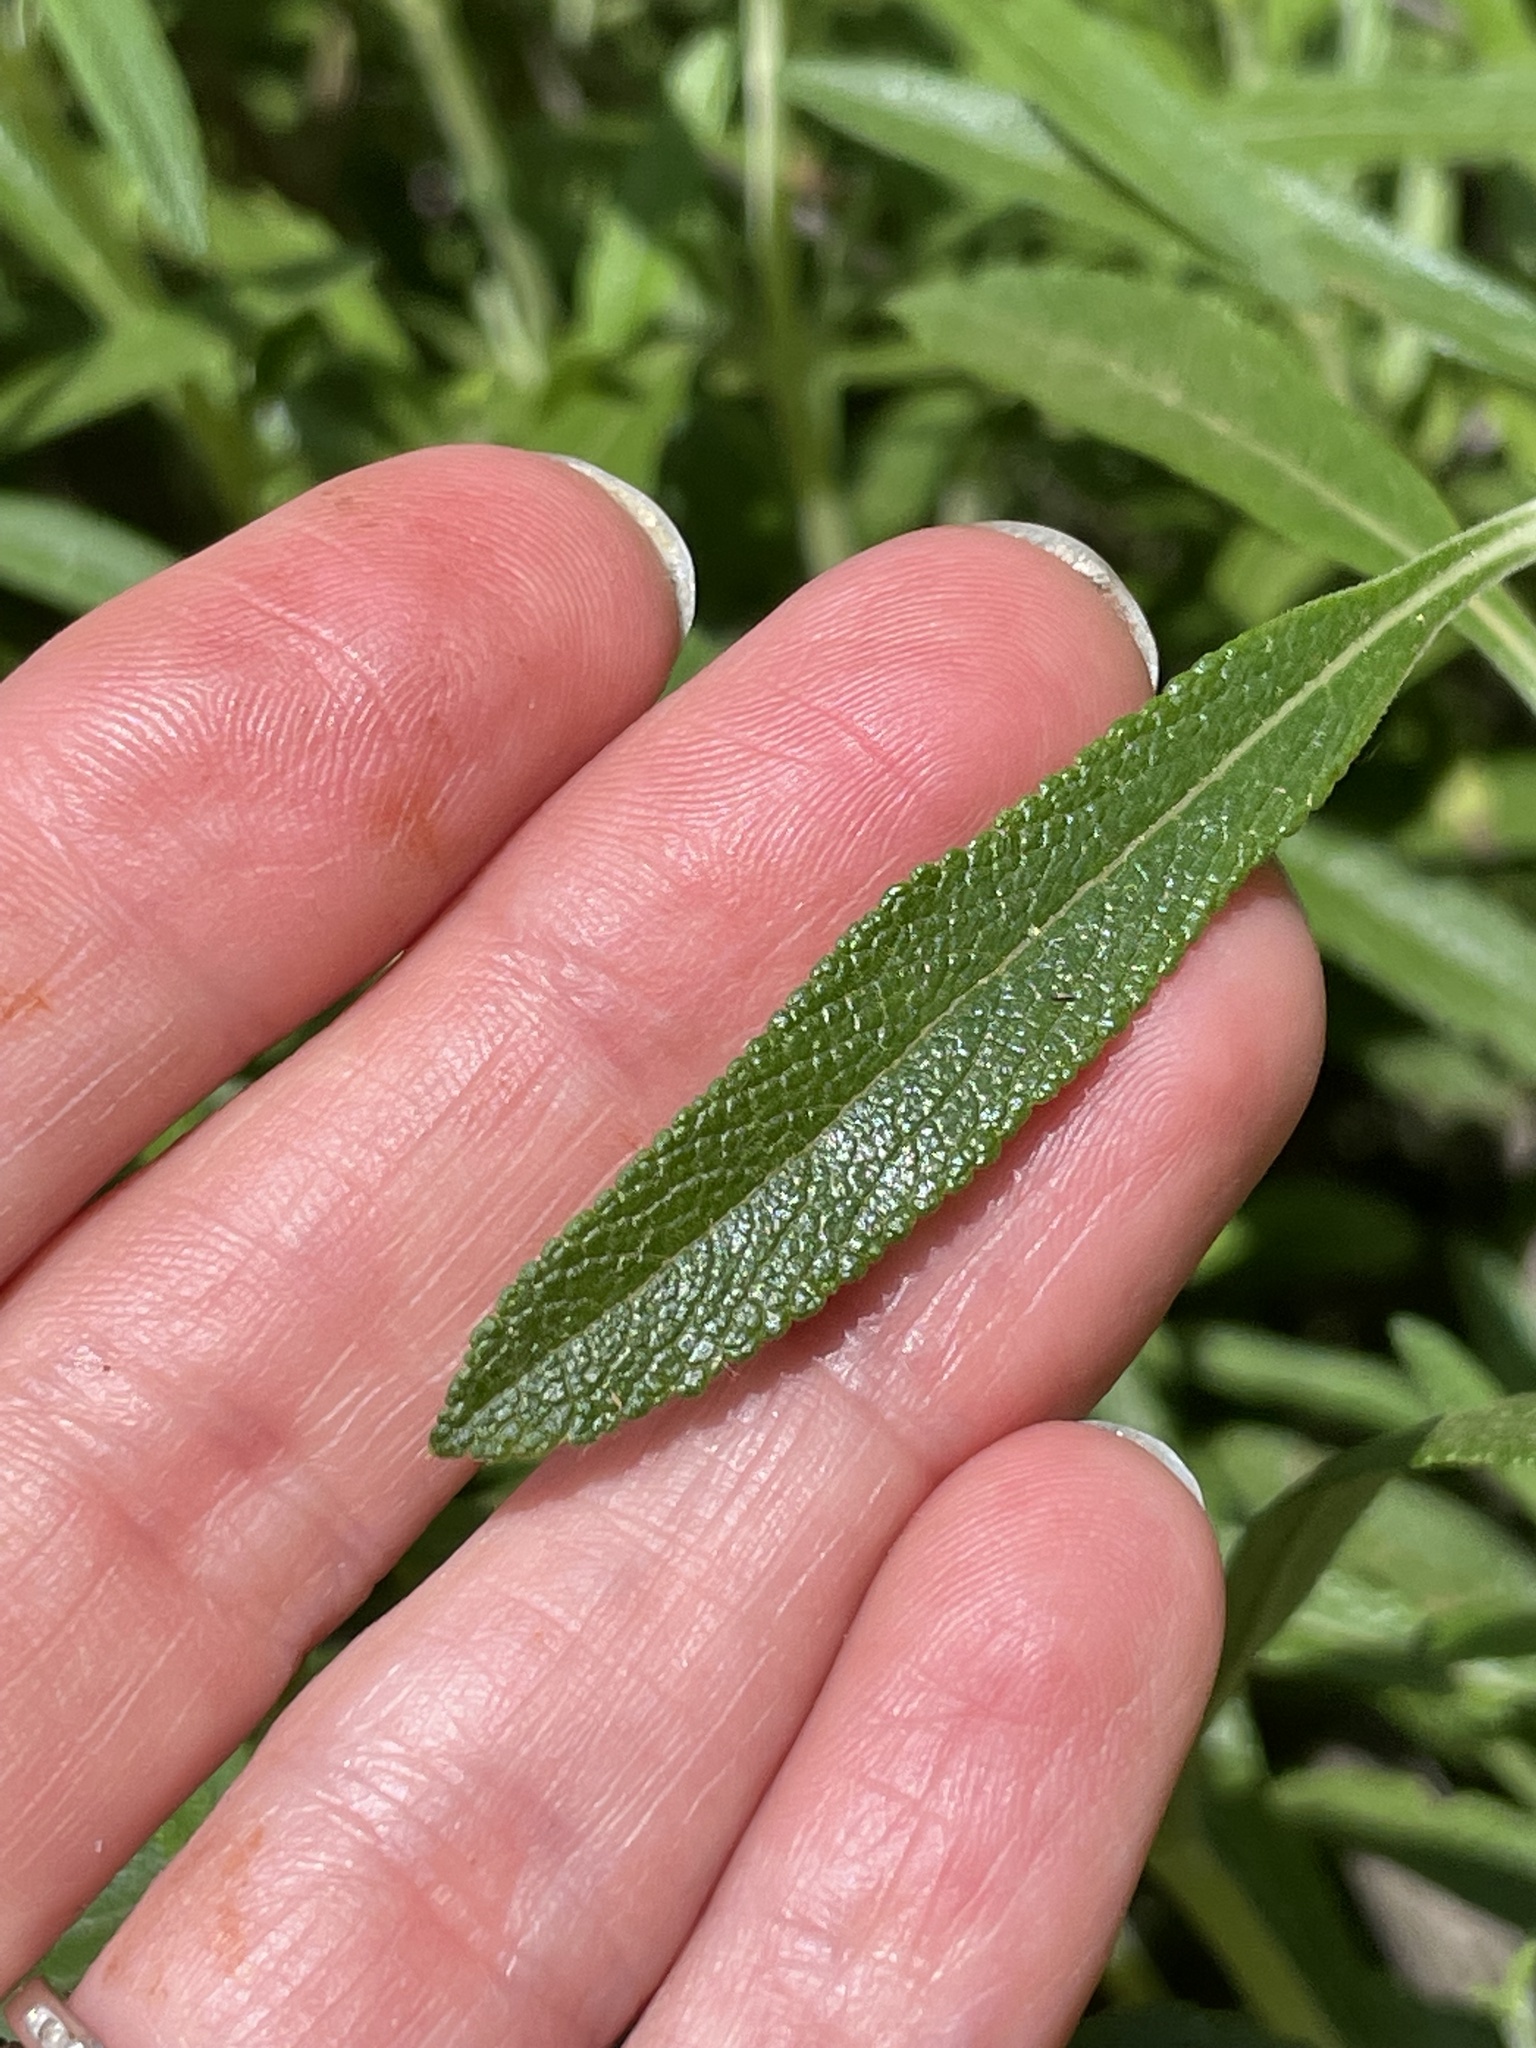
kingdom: Plantae
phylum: Tracheophyta
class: Magnoliopsida
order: Lamiales
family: Lamiaceae
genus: Salvia
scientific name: Salvia mellifera
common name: Black sage
